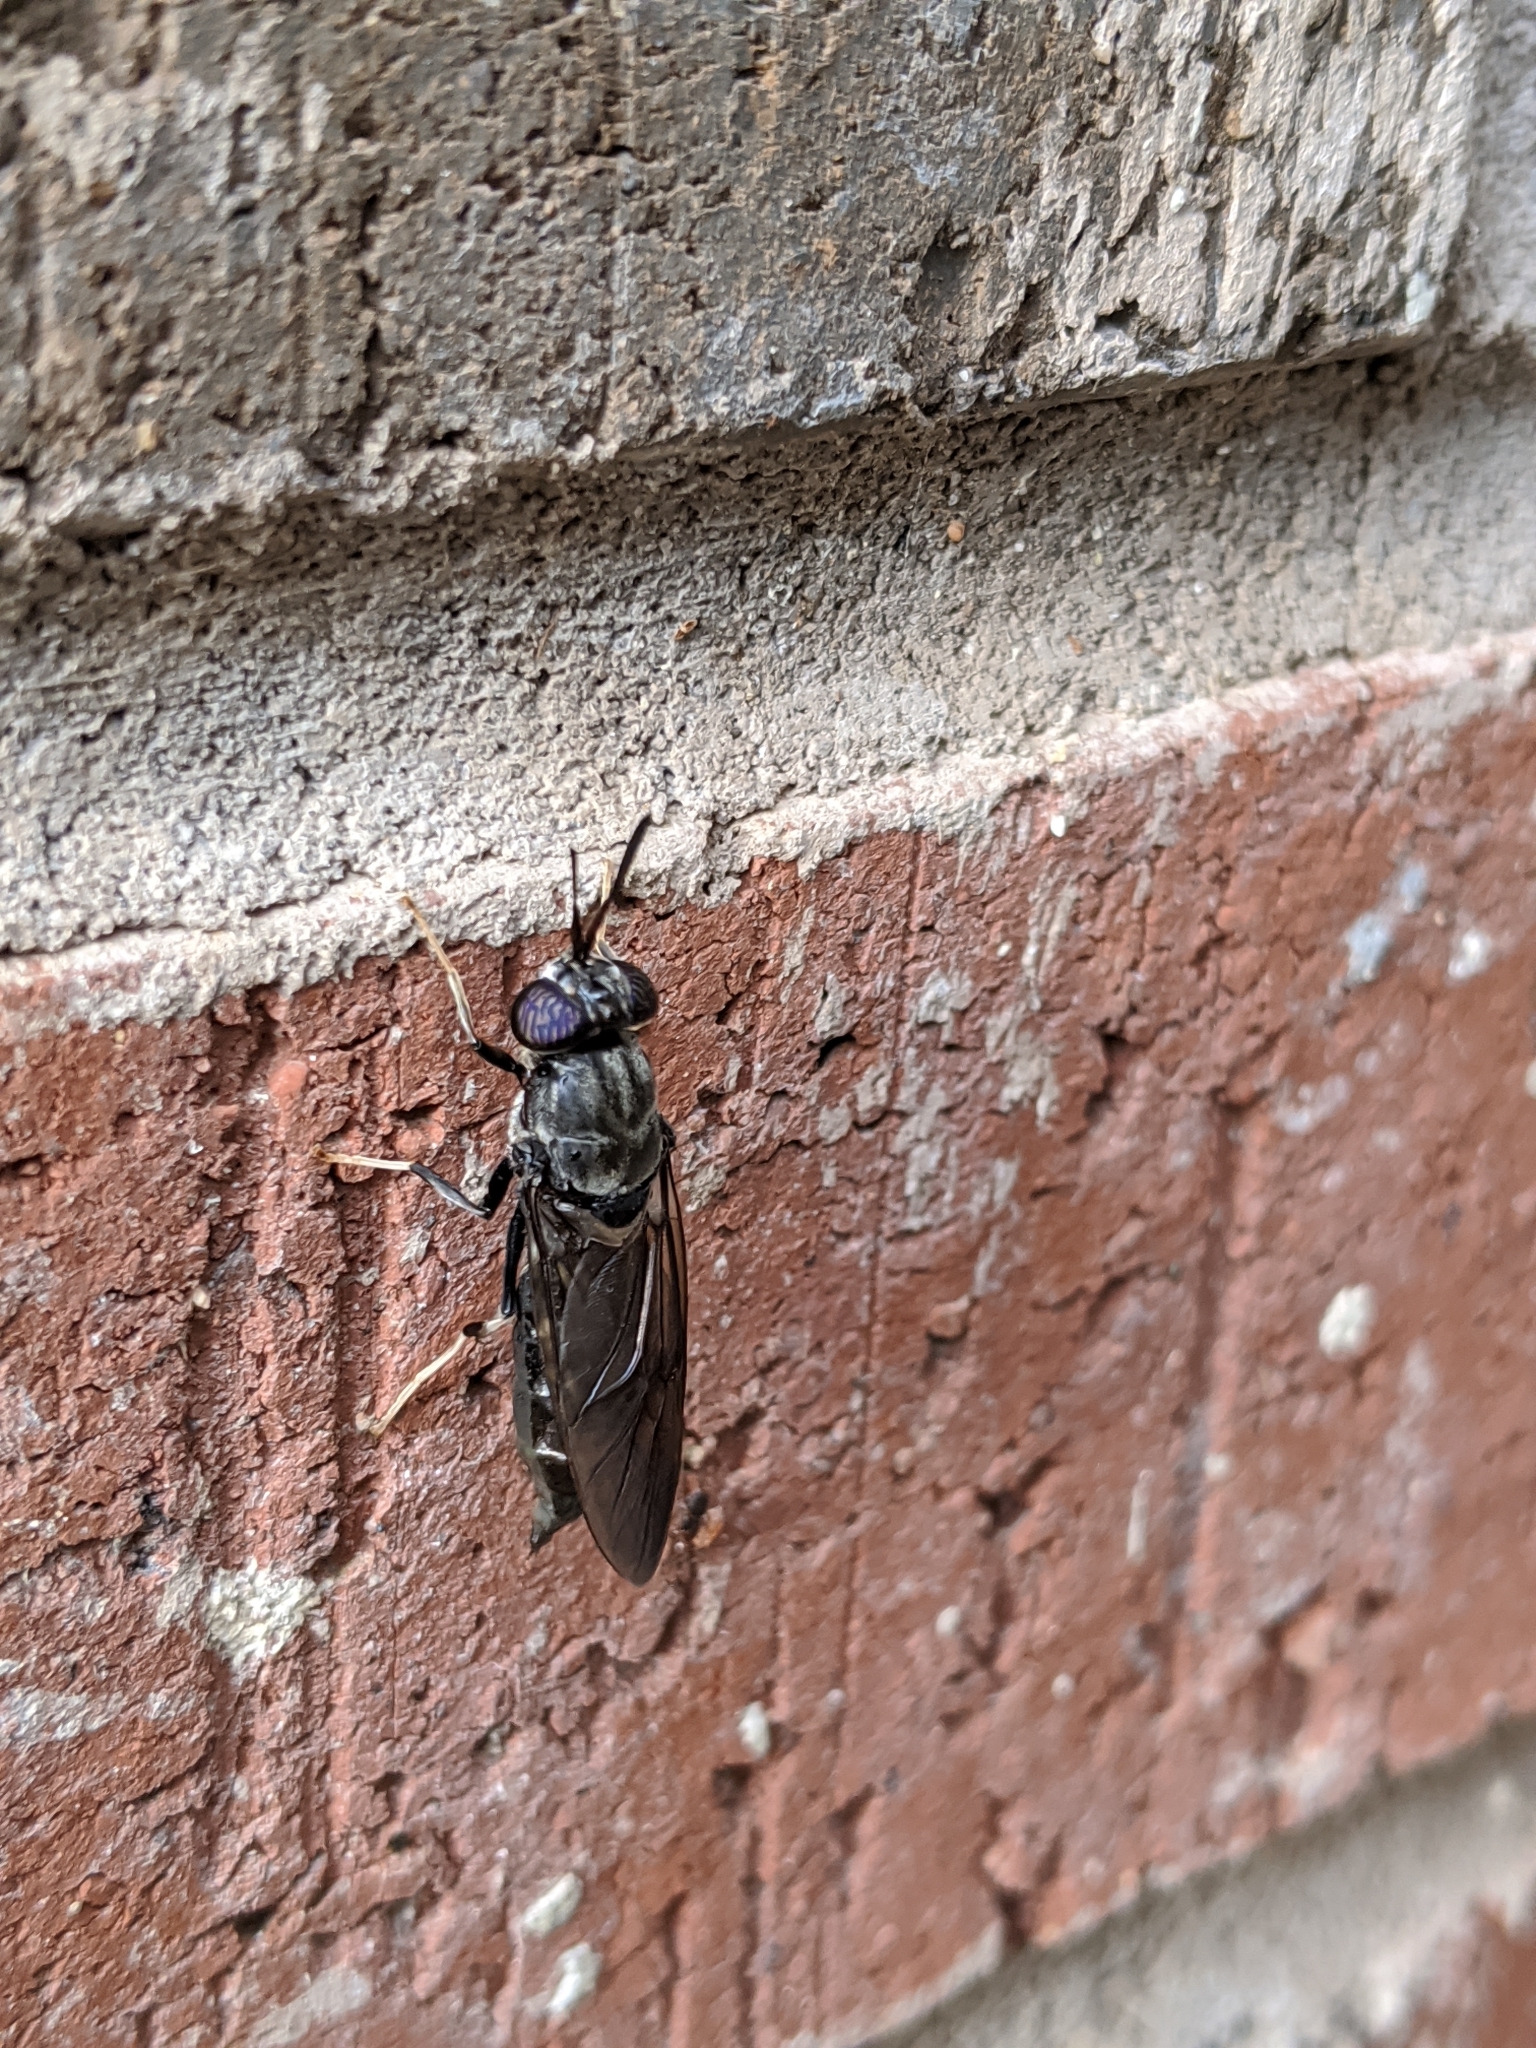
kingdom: Animalia
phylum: Arthropoda
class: Insecta
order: Diptera
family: Stratiomyidae
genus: Hermetia
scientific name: Hermetia illucens
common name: Black soldier fly
